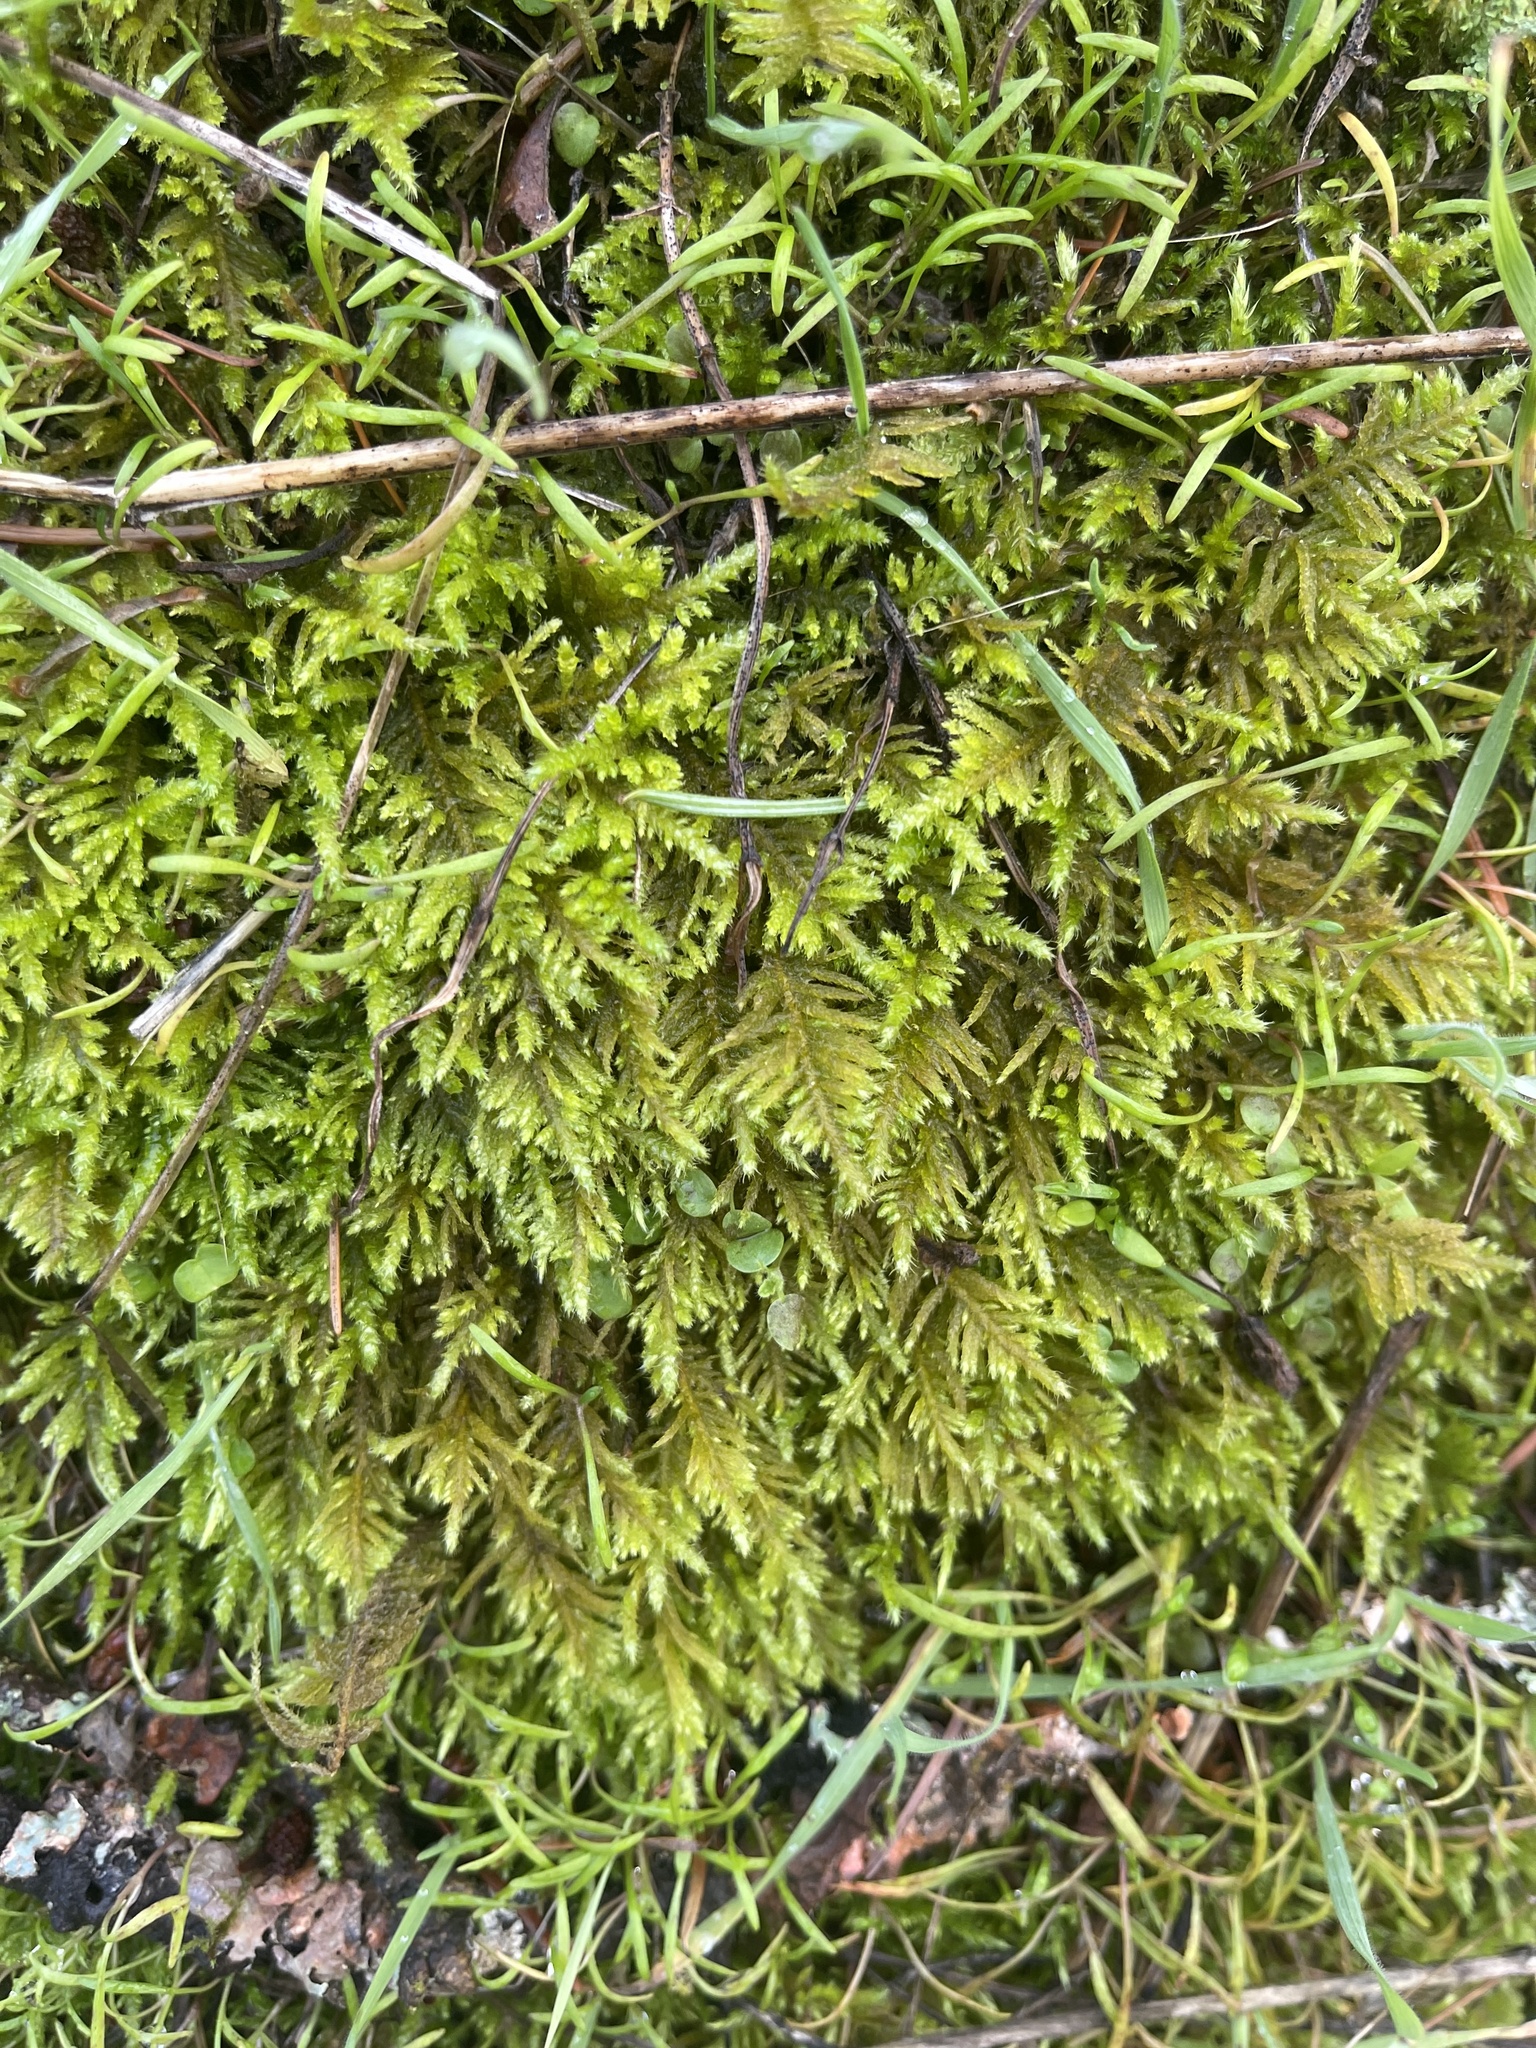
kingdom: Plantae
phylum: Bryophyta
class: Bryopsida
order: Hypnales
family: Brachytheciaceae
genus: Kindbergia
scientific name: Kindbergia oregana
